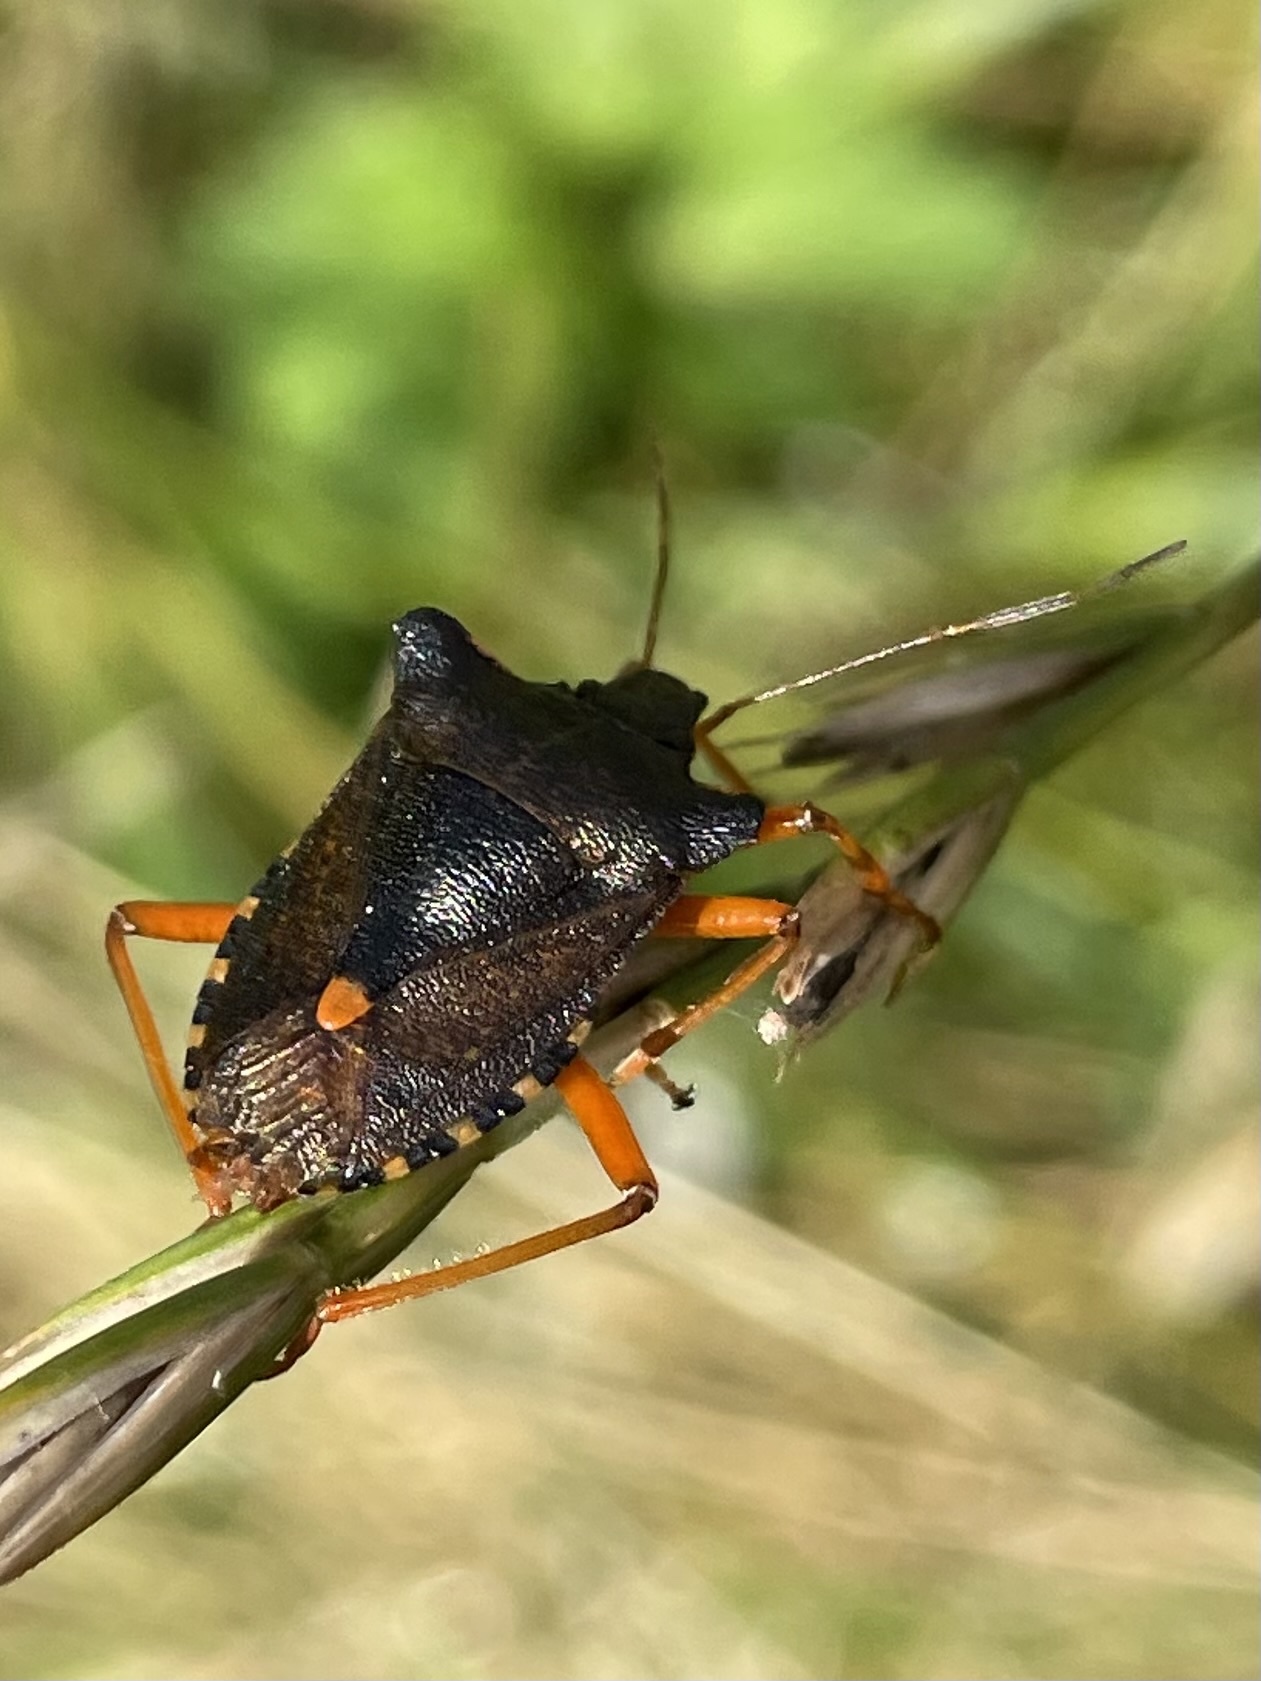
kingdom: Animalia
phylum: Arthropoda
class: Insecta
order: Hemiptera
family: Pentatomidae
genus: Pentatoma
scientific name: Pentatoma rufipes
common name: Forest bug
